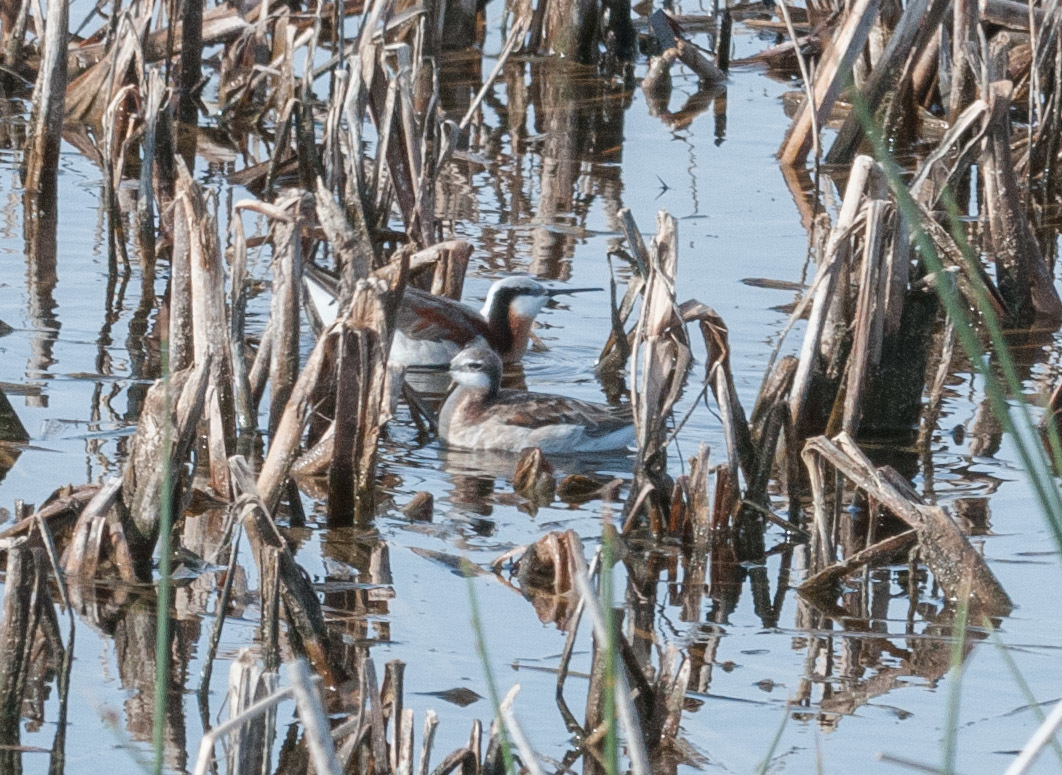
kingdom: Animalia
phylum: Chordata
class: Aves
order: Charadriiformes
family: Scolopacidae
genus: Phalaropus
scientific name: Phalaropus tricolor
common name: Wilson's phalarope
